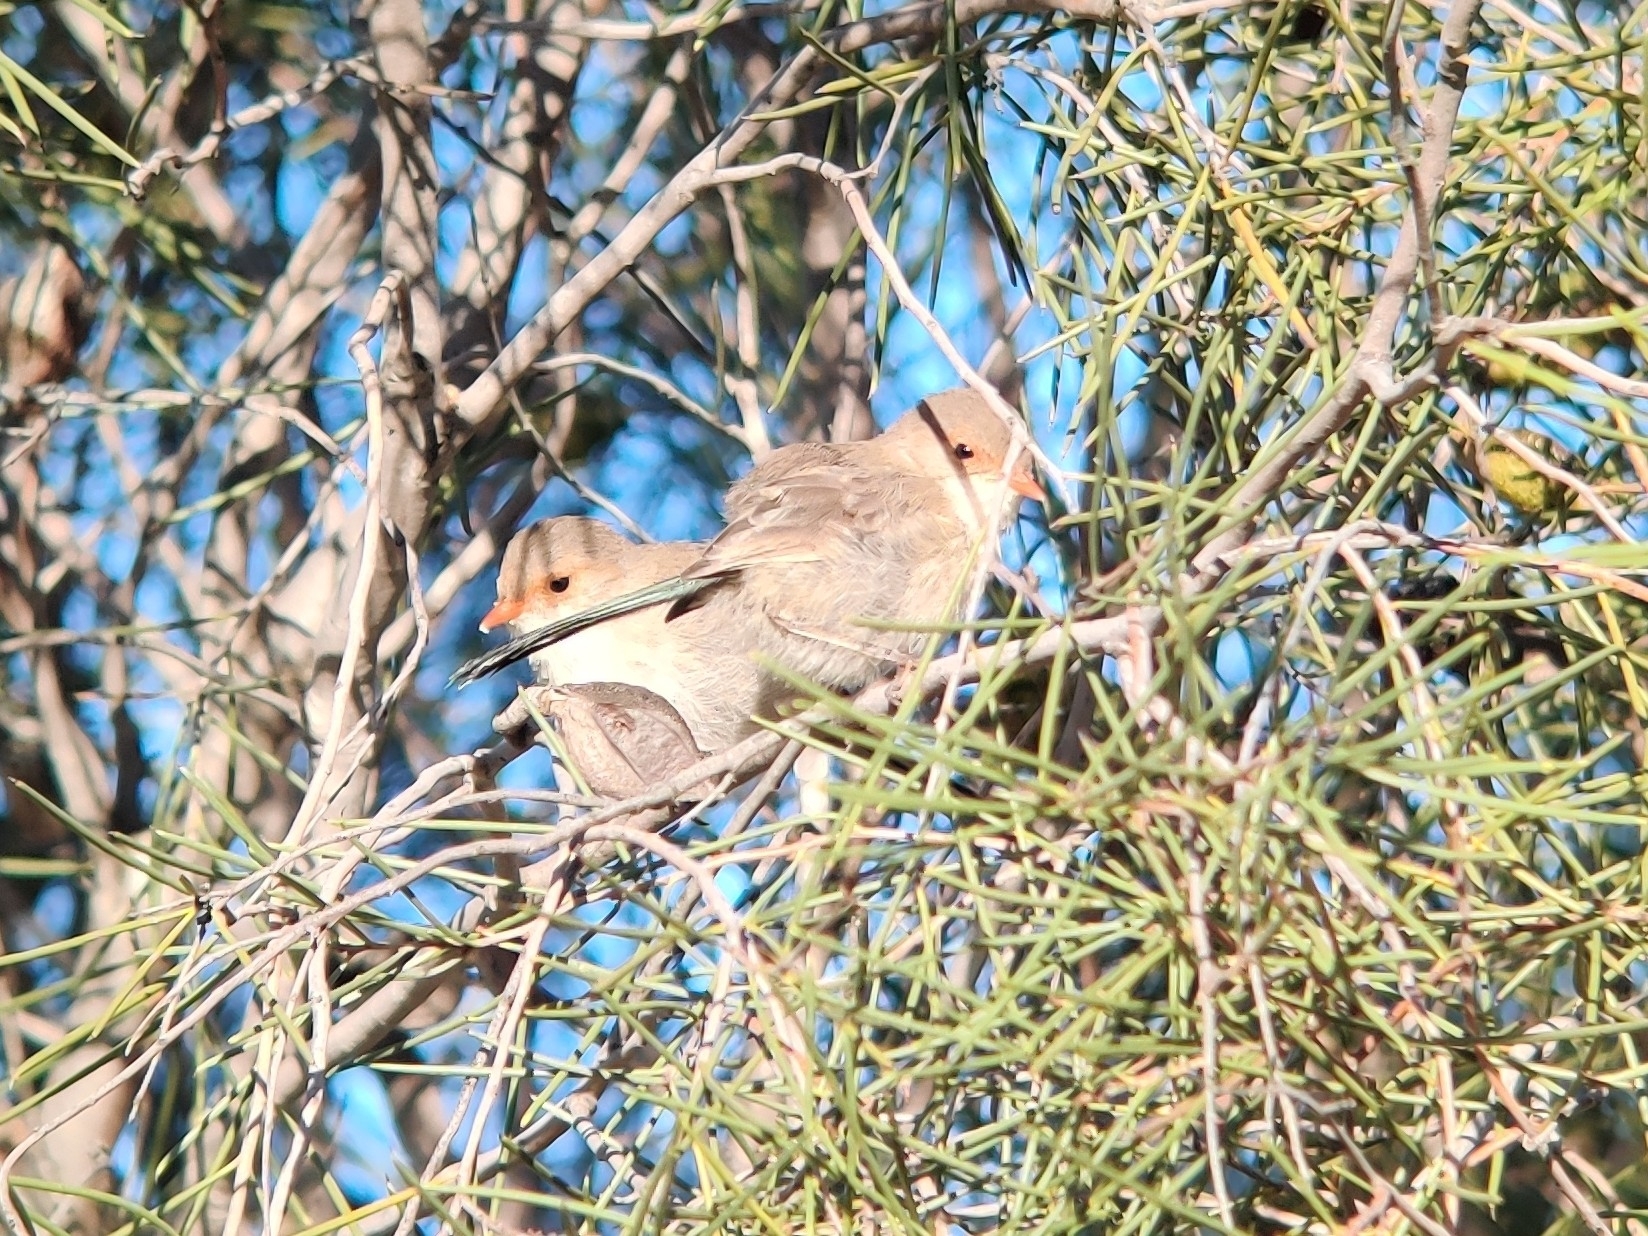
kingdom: Animalia
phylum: Chordata
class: Aves
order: Passeriformes
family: Maluridae
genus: Malurus
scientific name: Malurus splendens
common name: Splendid fairywren
